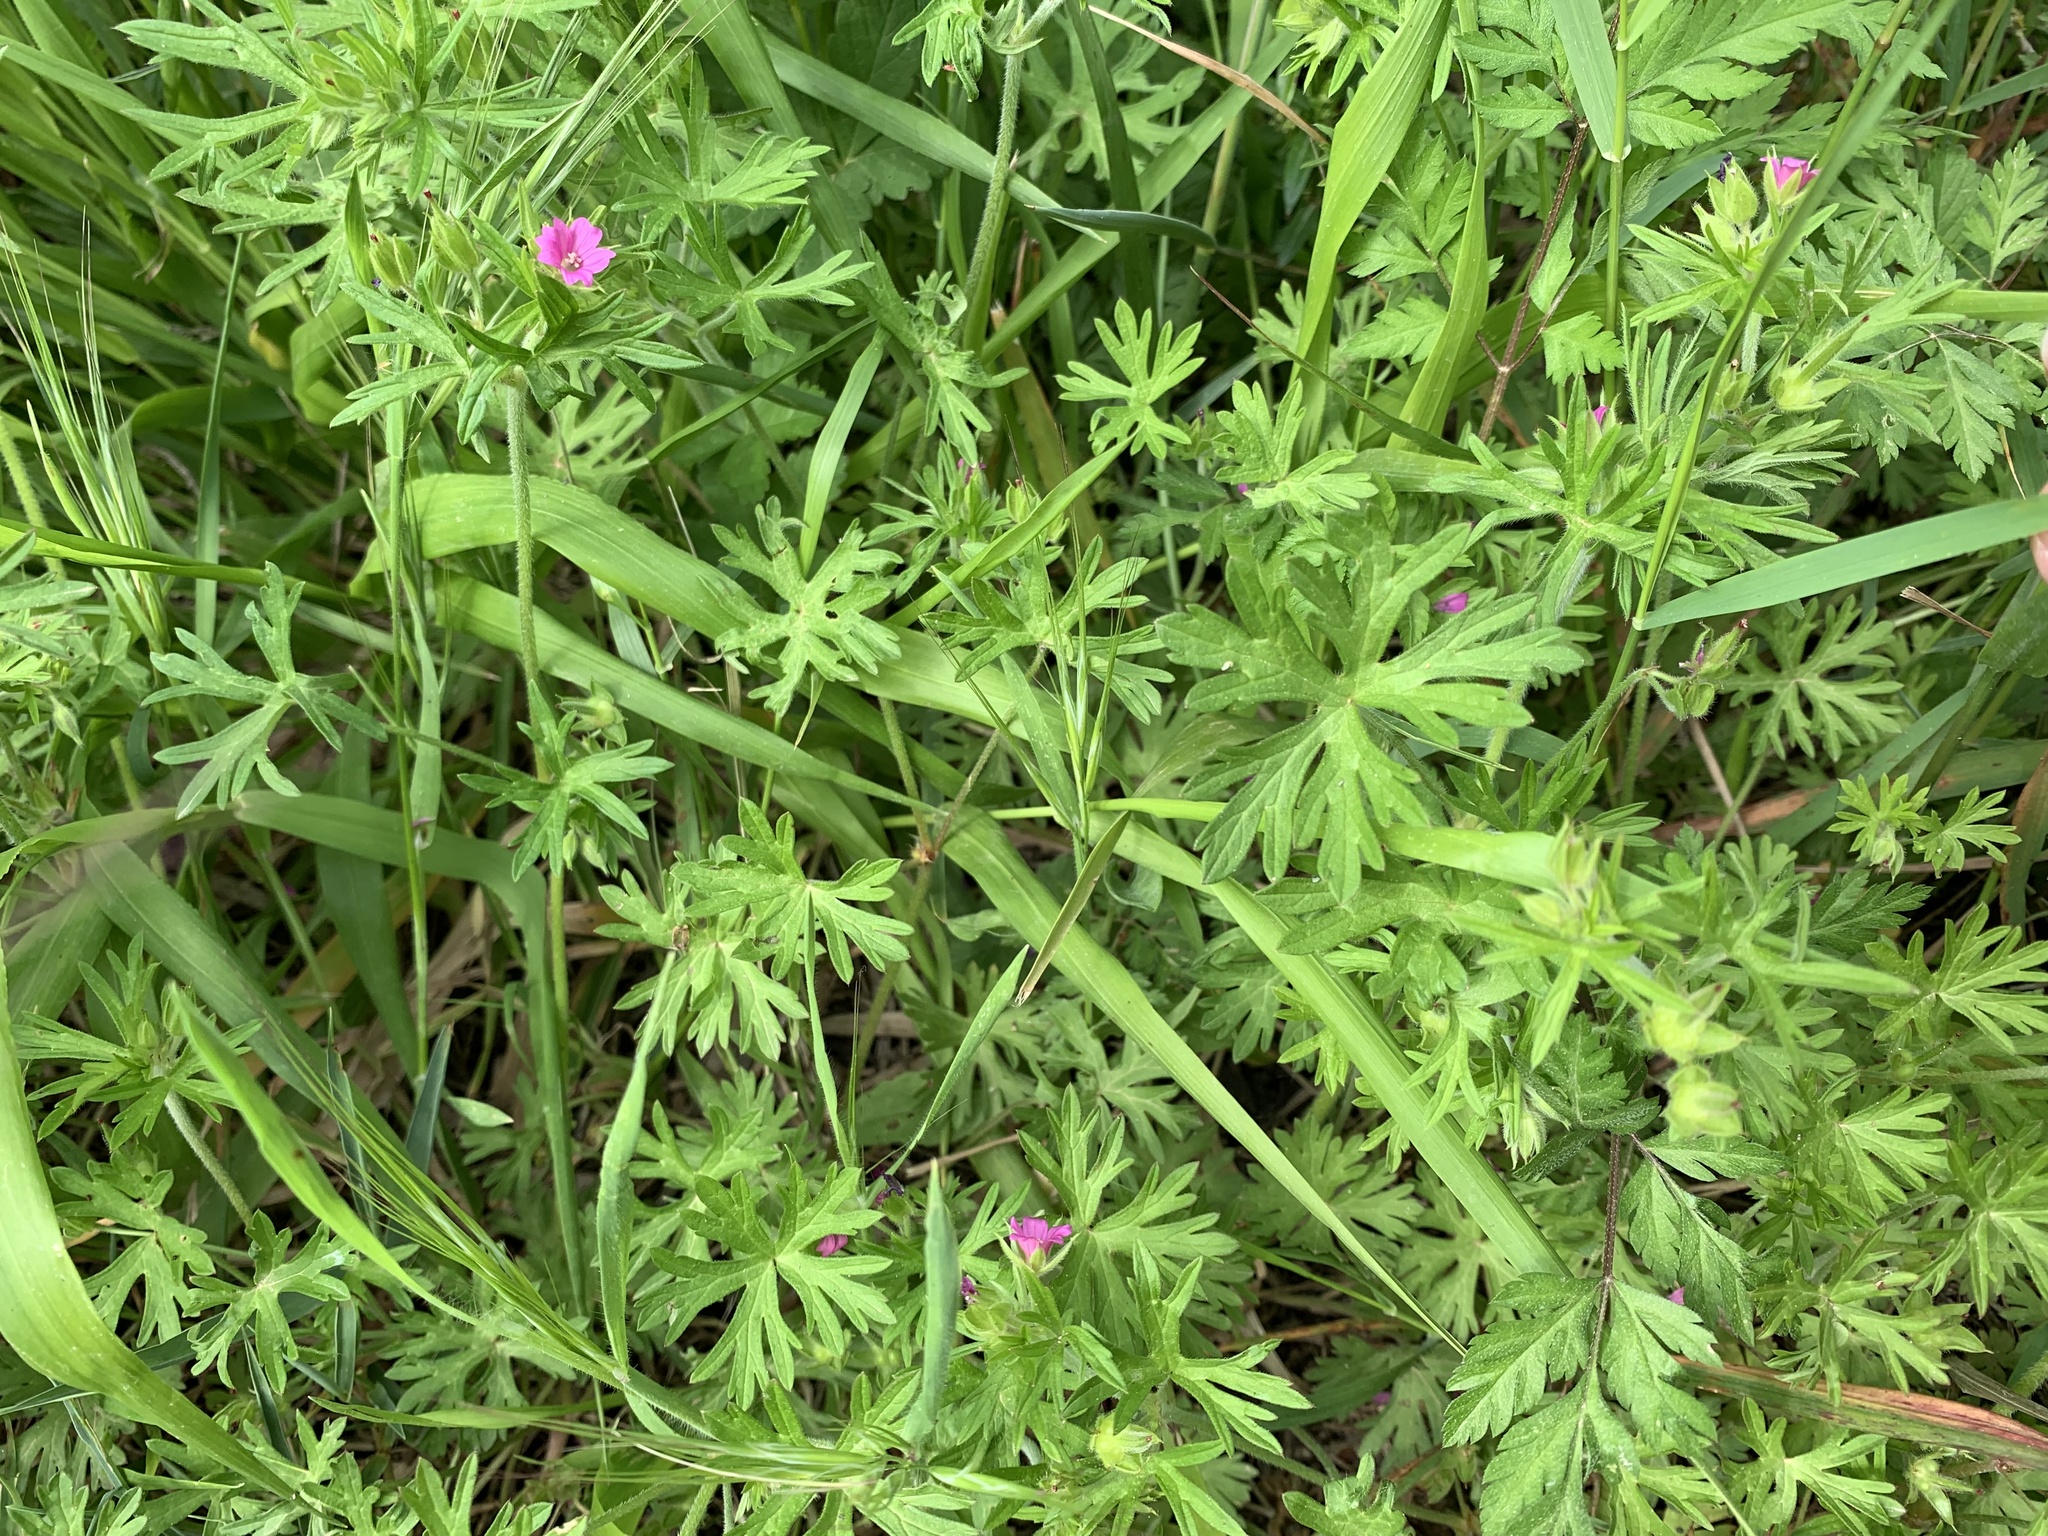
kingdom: Plantae
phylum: Tracheophyta
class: Magnoliopsida
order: Geraniales
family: Geraniaceae
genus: Geranium
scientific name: Geranium dissectum
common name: Cut-leaved crane's-bill
